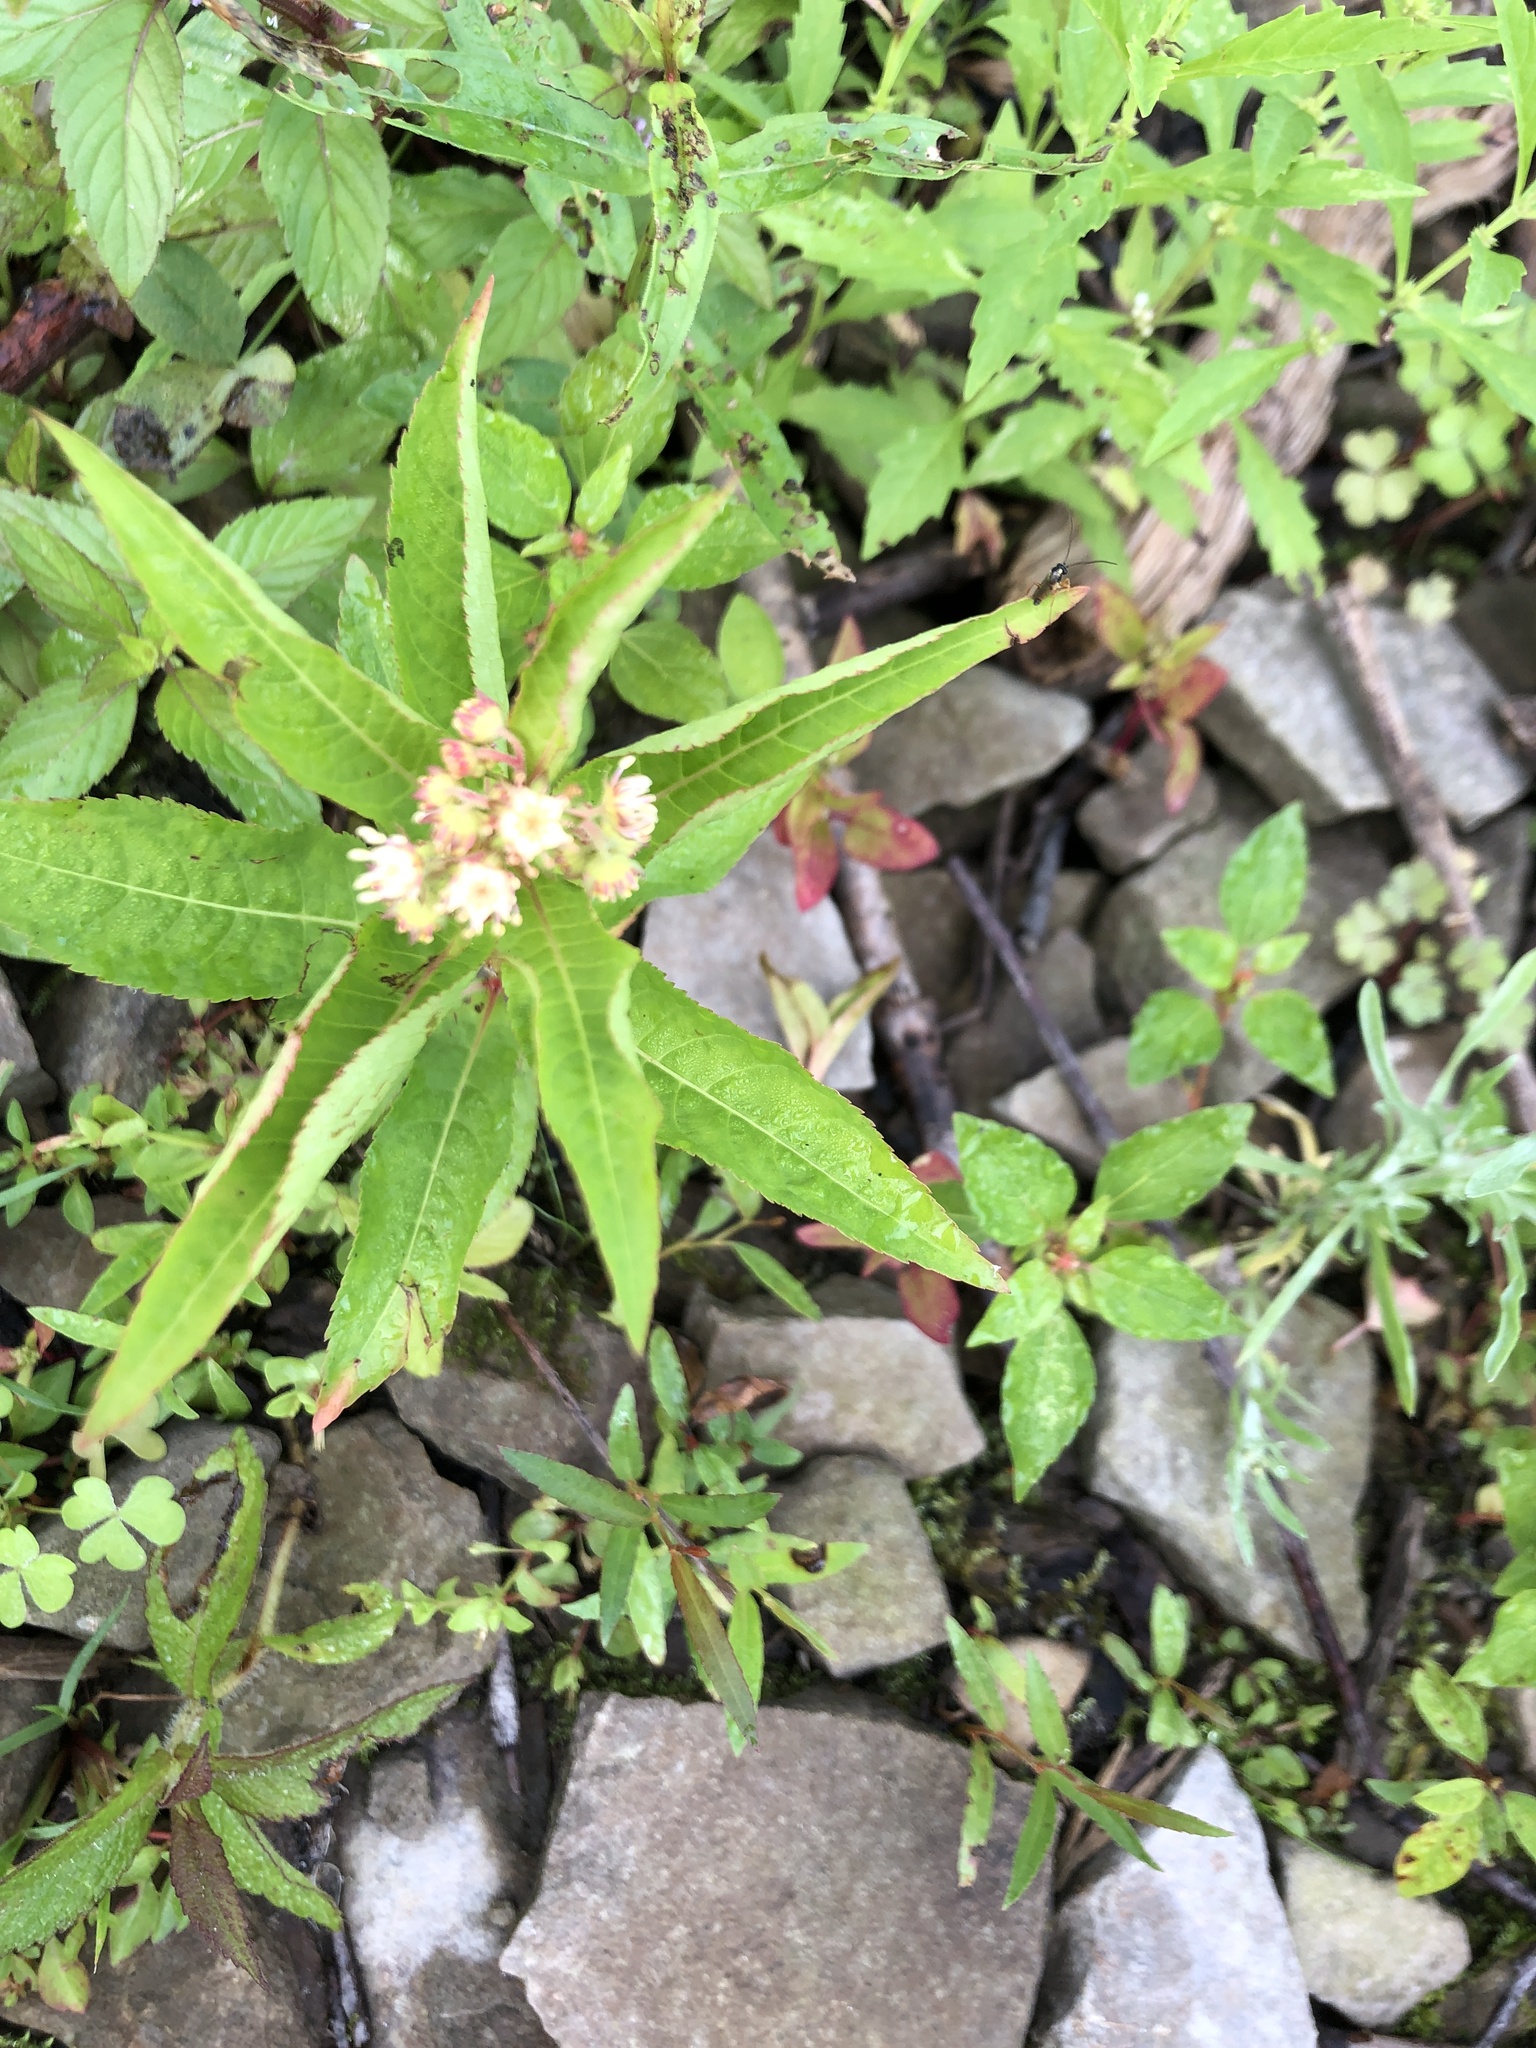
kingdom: Plantae
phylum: Tracheophyta
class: Magnoliopsida
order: Saxifragales
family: Penthoraceae
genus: Penthorum
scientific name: Penthorum sedoides
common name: Ditch stonecrop
